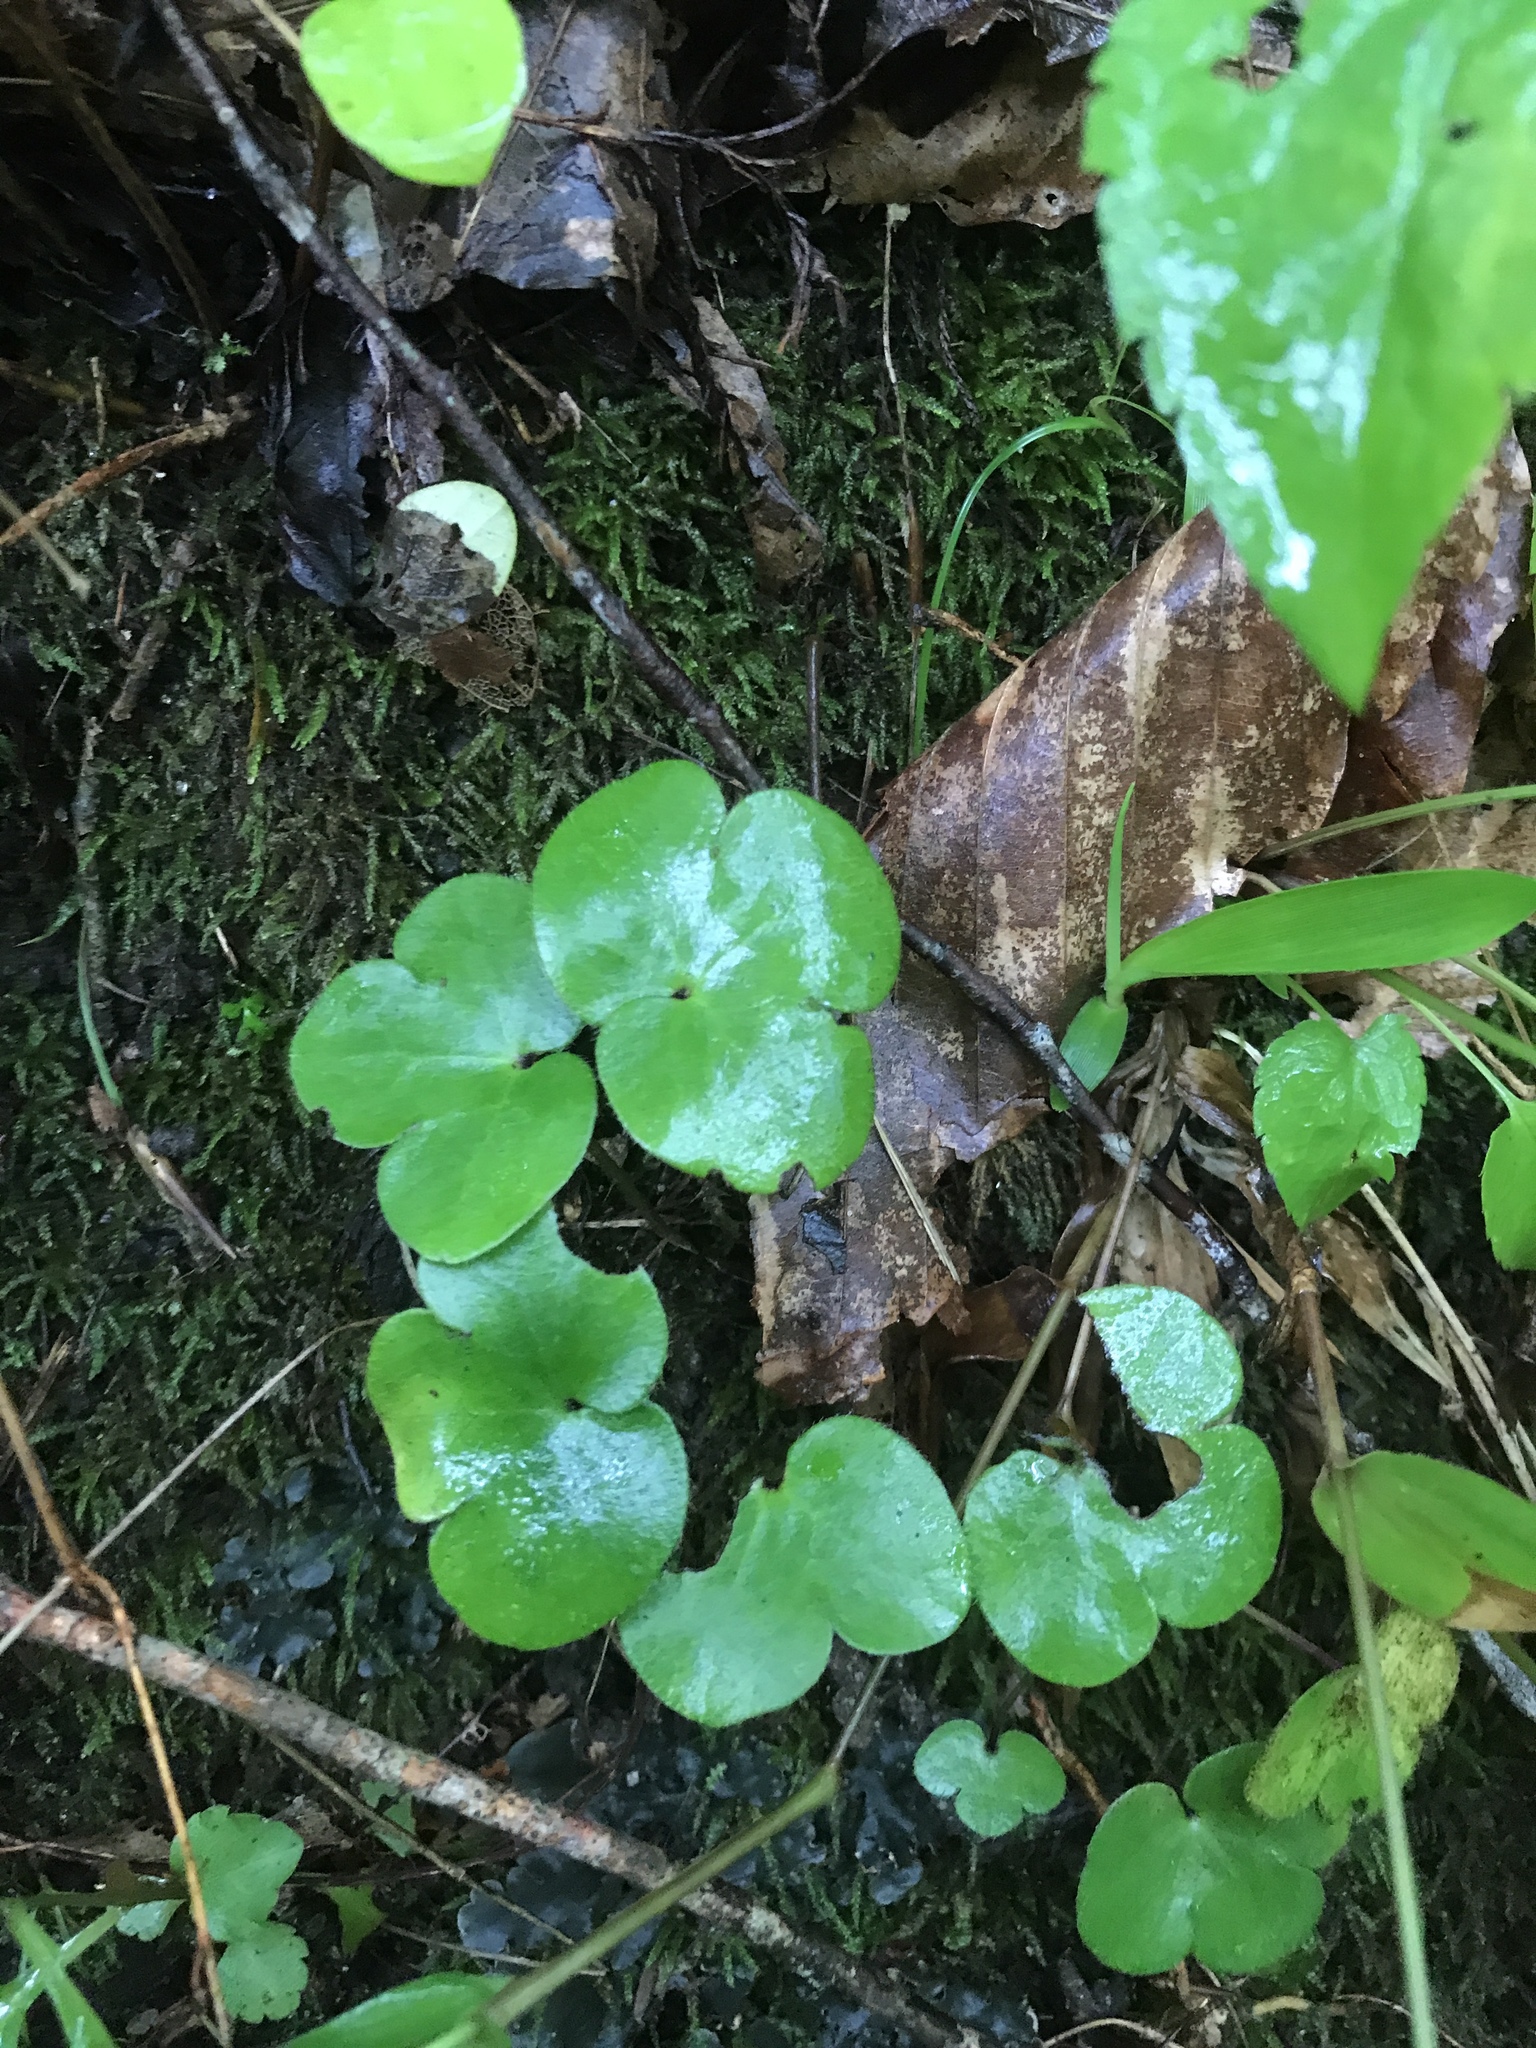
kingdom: Plantae
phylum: Tracheophyta
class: Magnoliopsida
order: Ranunculales
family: Ranunculaceae
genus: Hepatica
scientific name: Hepatica americana
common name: American hepatica
